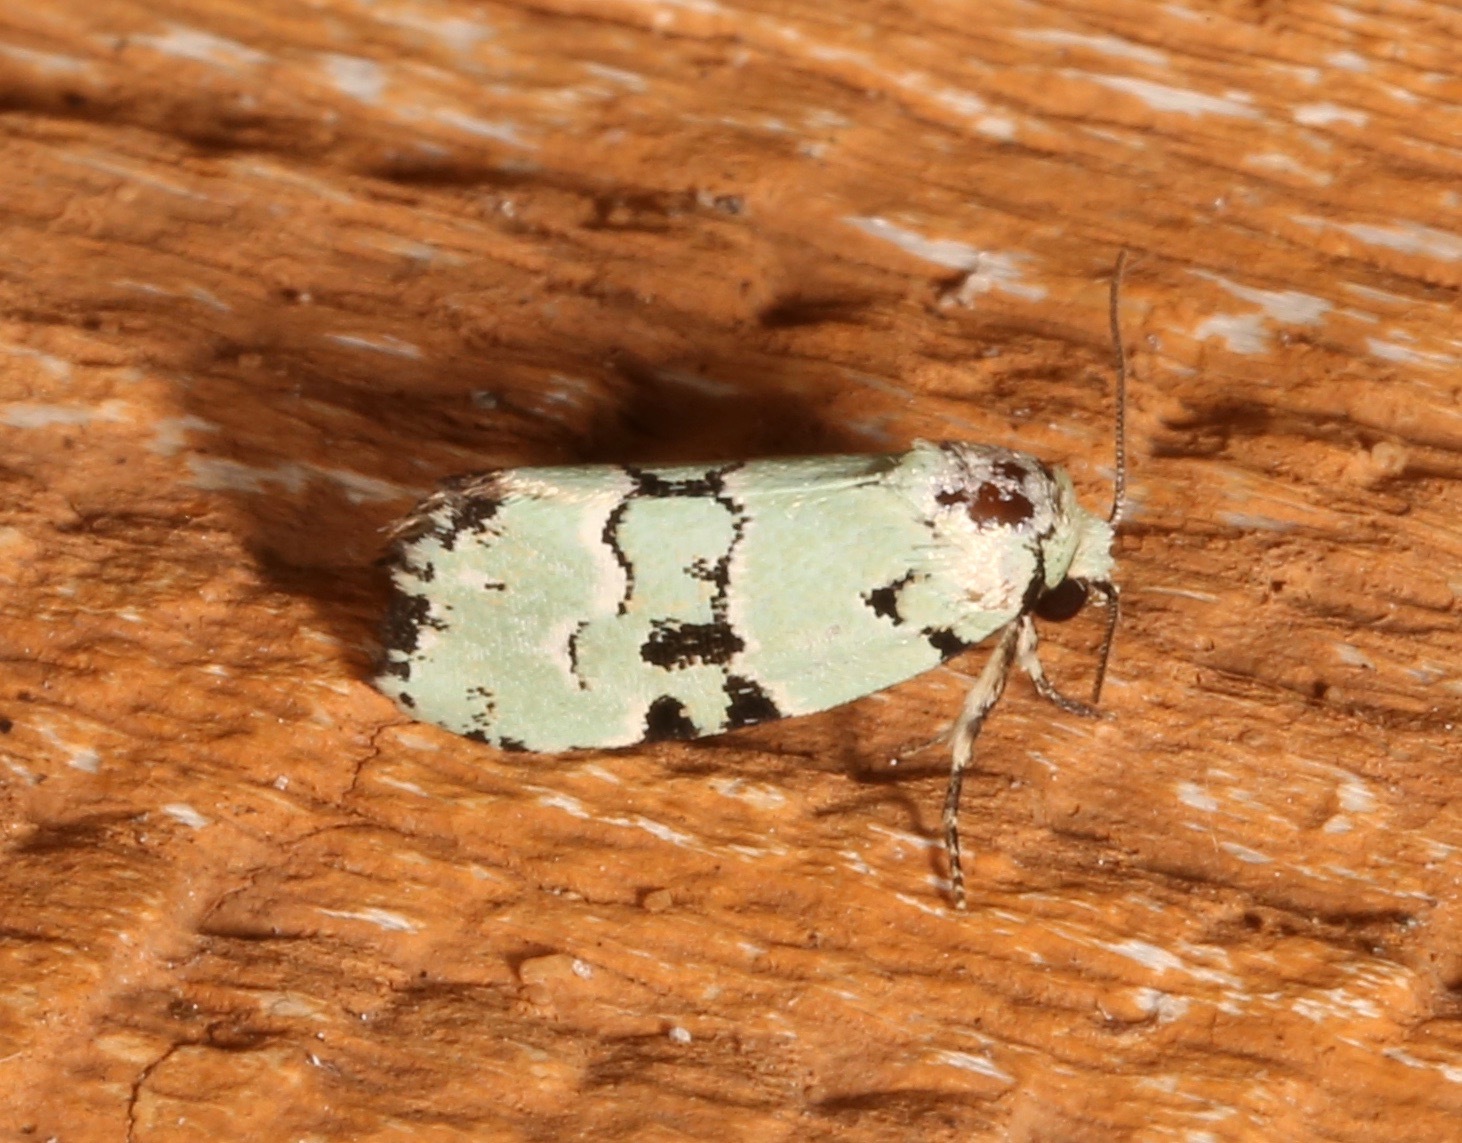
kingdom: Animalia
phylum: Arthropoda
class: Insecta
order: Lepidoptera
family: Noctuidae
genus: Elaphria
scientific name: Elaphria cyanympha
